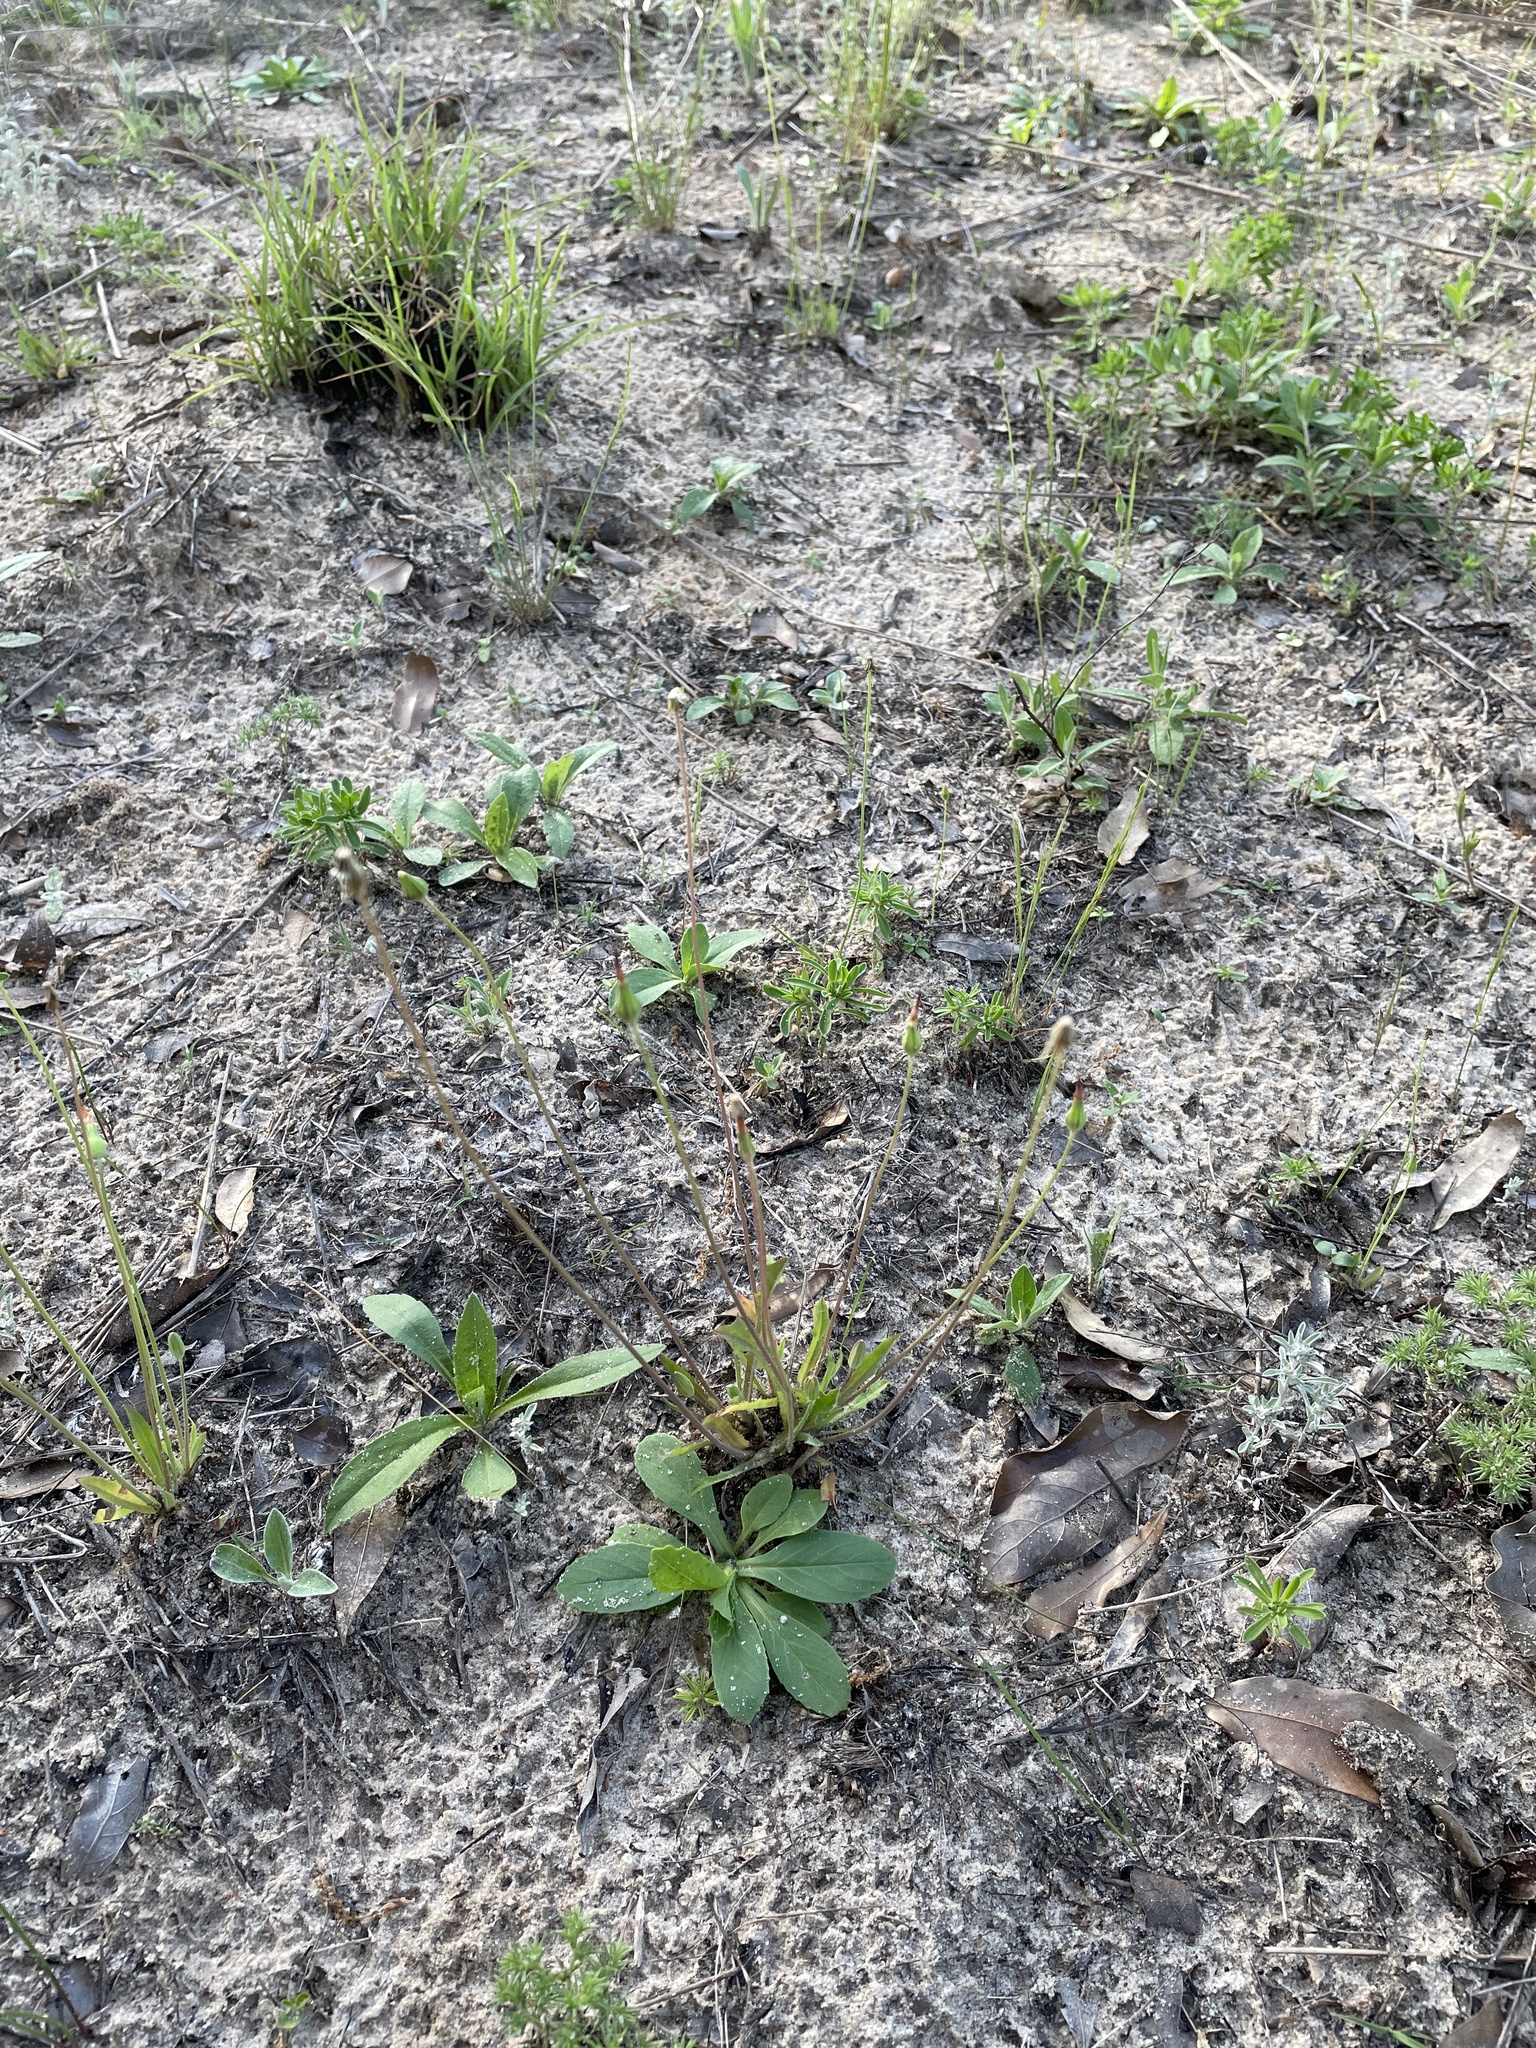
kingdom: Plantae
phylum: Tracheophyta
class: Magnoliopsida
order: Asterales
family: Asteraceae
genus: Krigia
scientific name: Krigia virginica
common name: Virginia dwarf-dandelion
